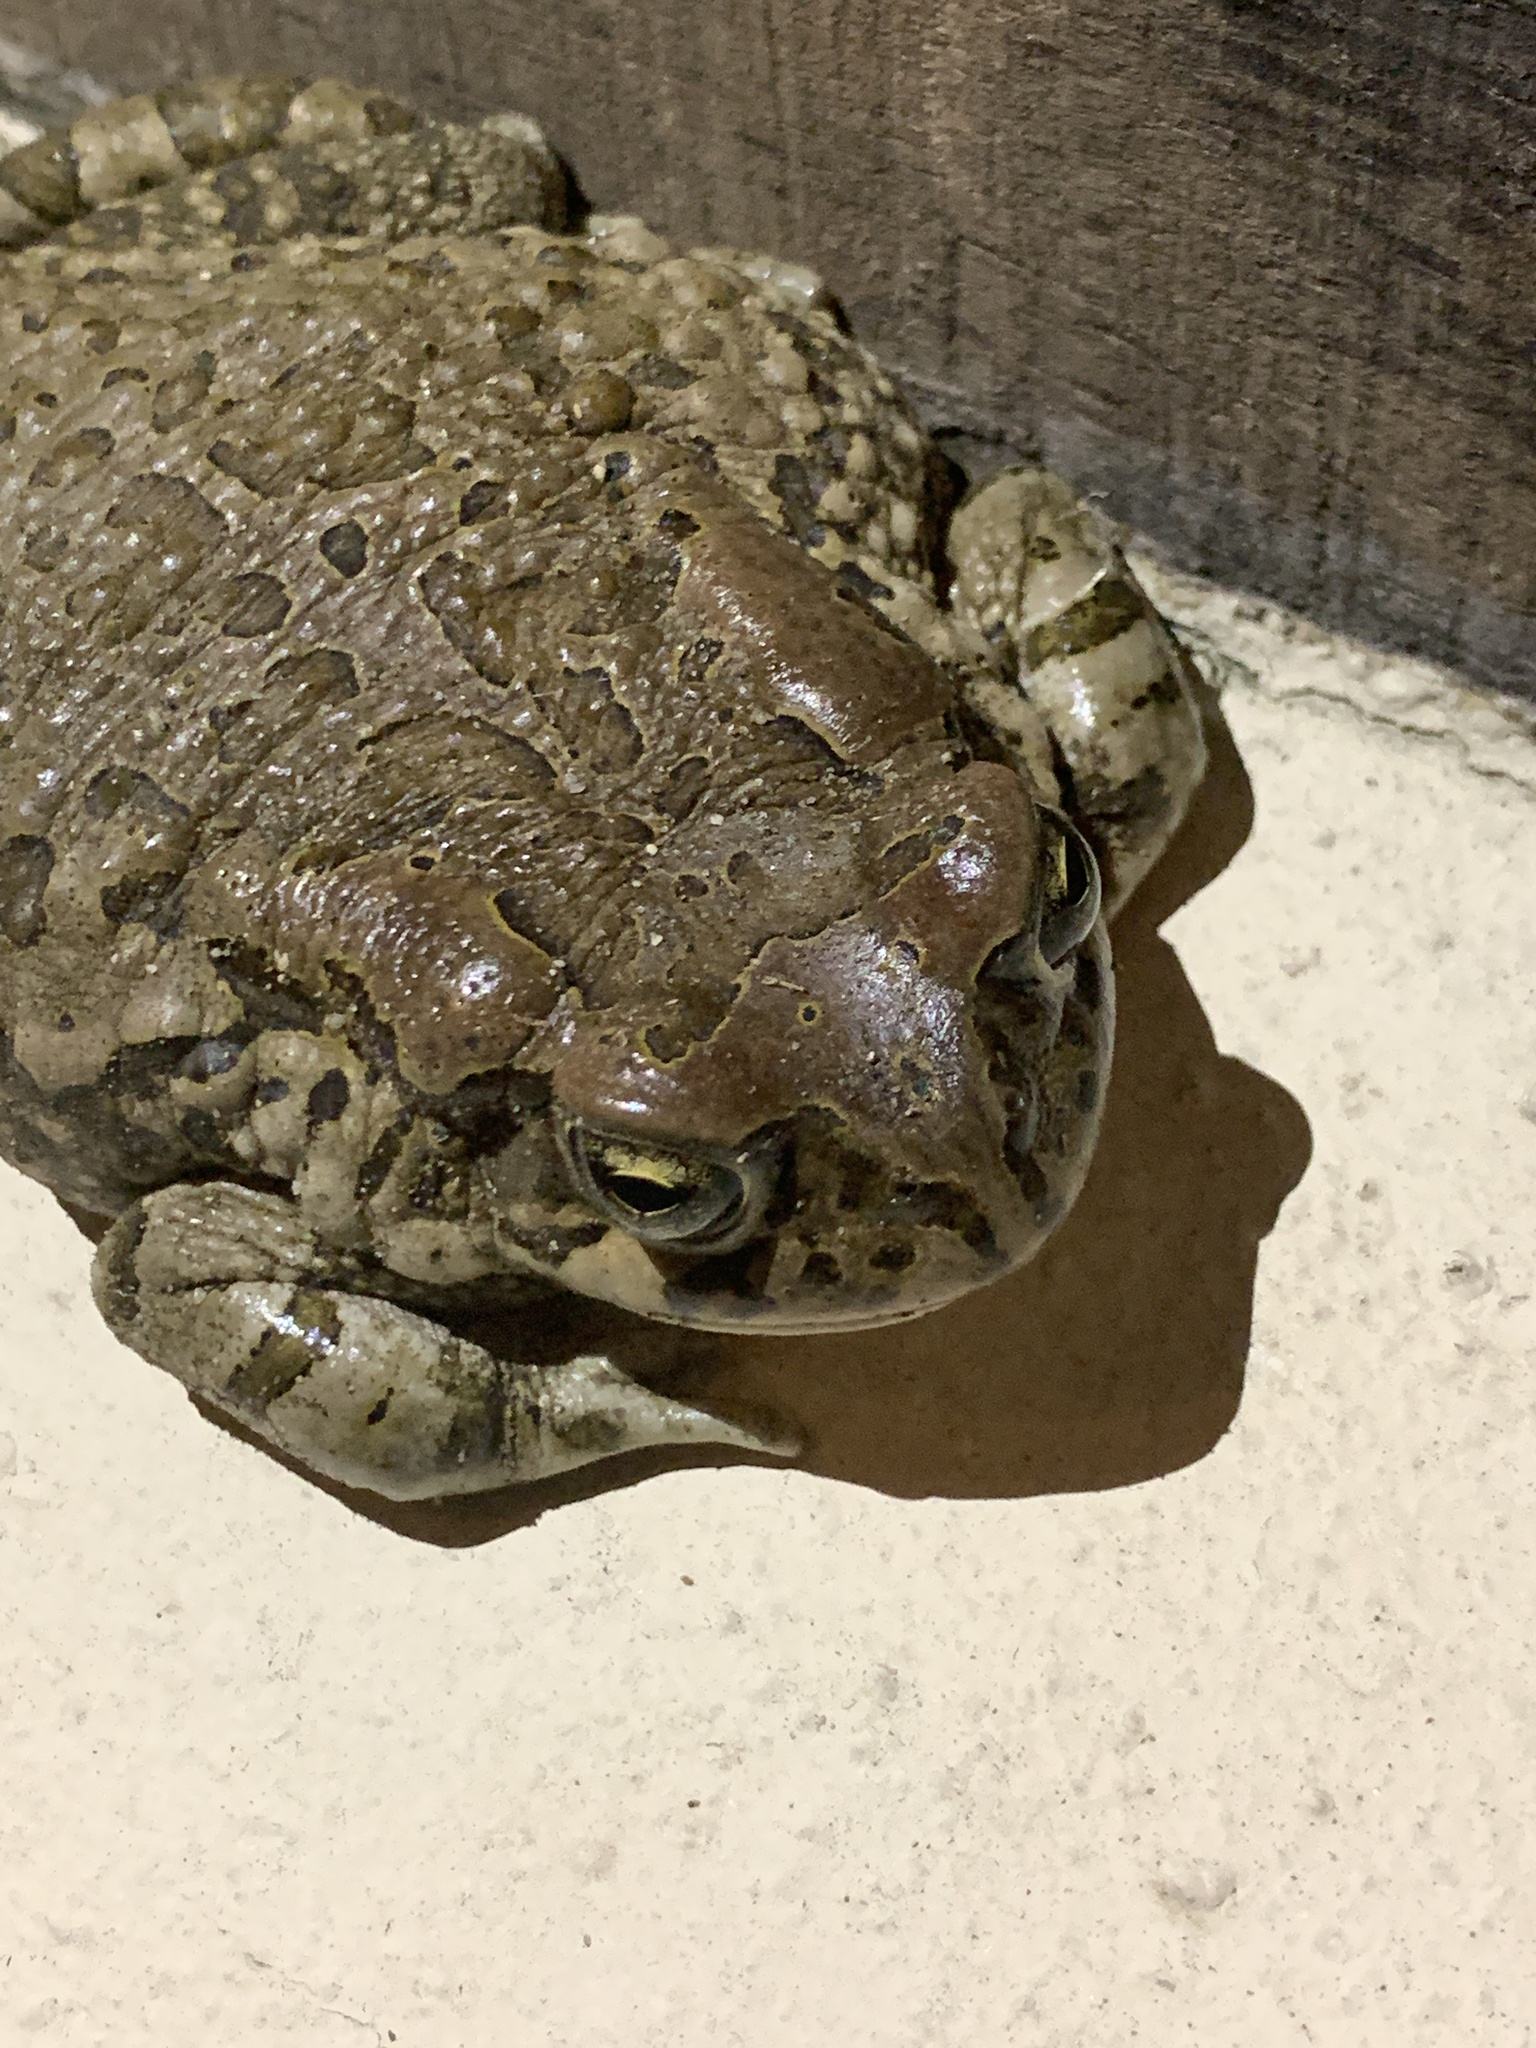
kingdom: Animalia
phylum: Chordata
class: Amphibia
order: Anura
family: Bufonidae
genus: Sclerophrys
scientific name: Sclerophrys capensis
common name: Ranger’s toad
